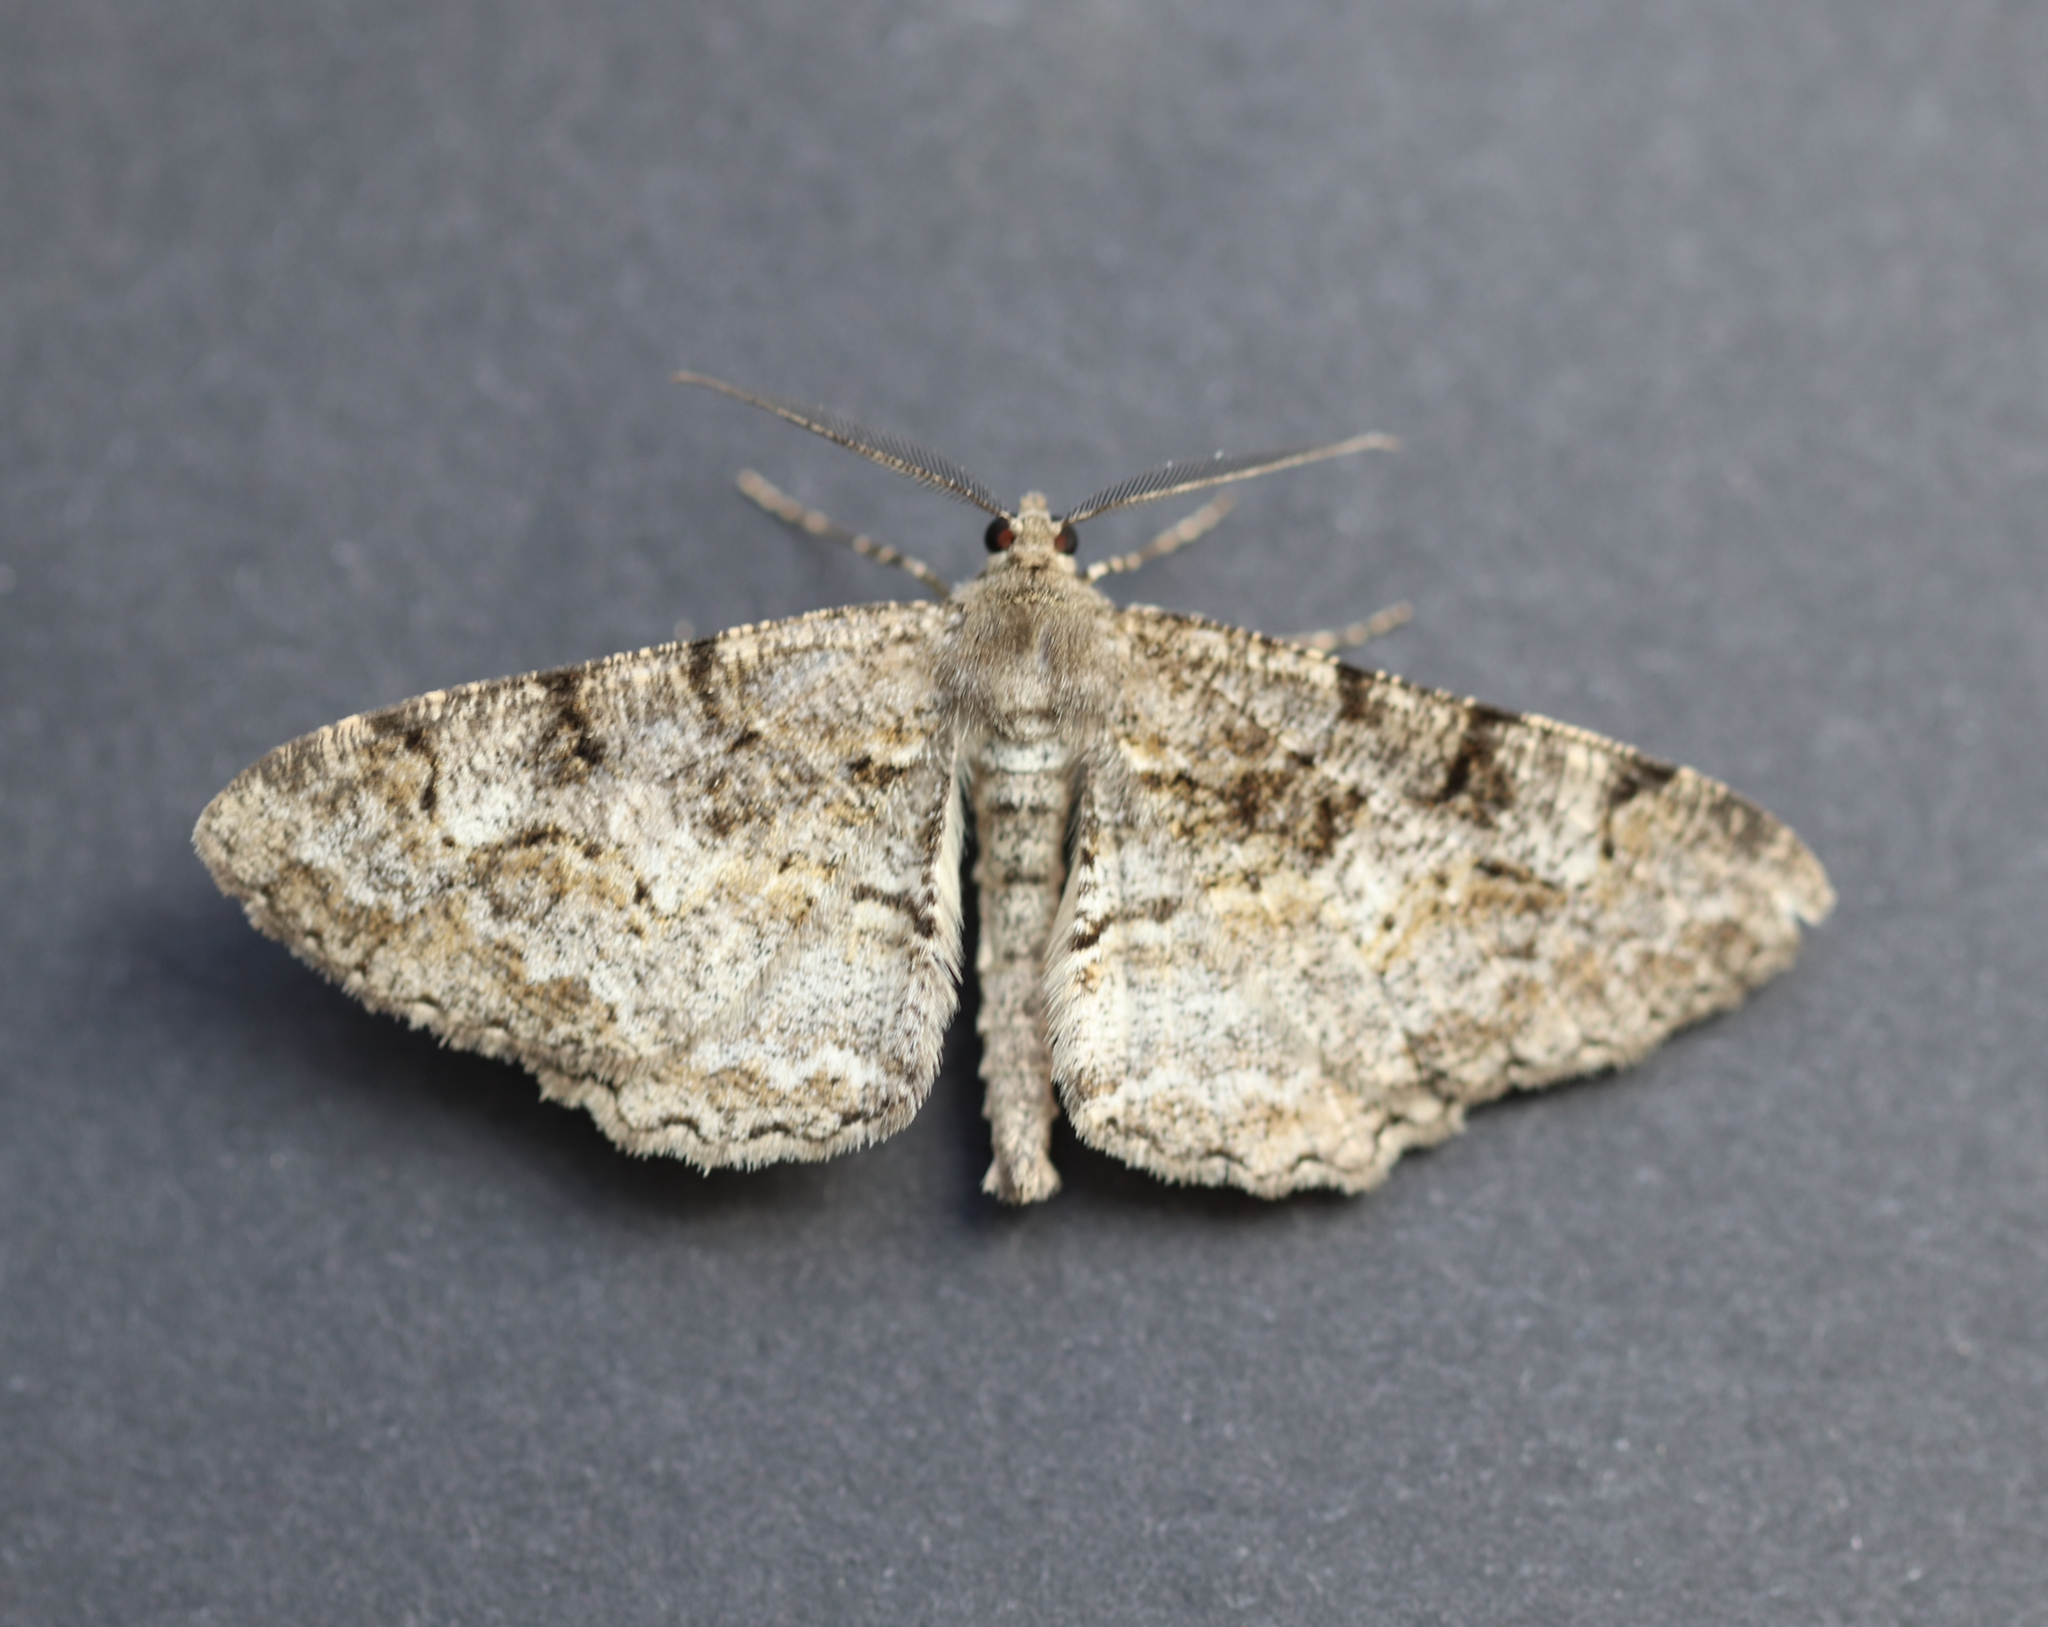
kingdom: Animalia
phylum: Arthropoda
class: Insecta
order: Lepidoptera
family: Geometridae
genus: Alcis
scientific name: Alcis repandata
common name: Mottled beauty
